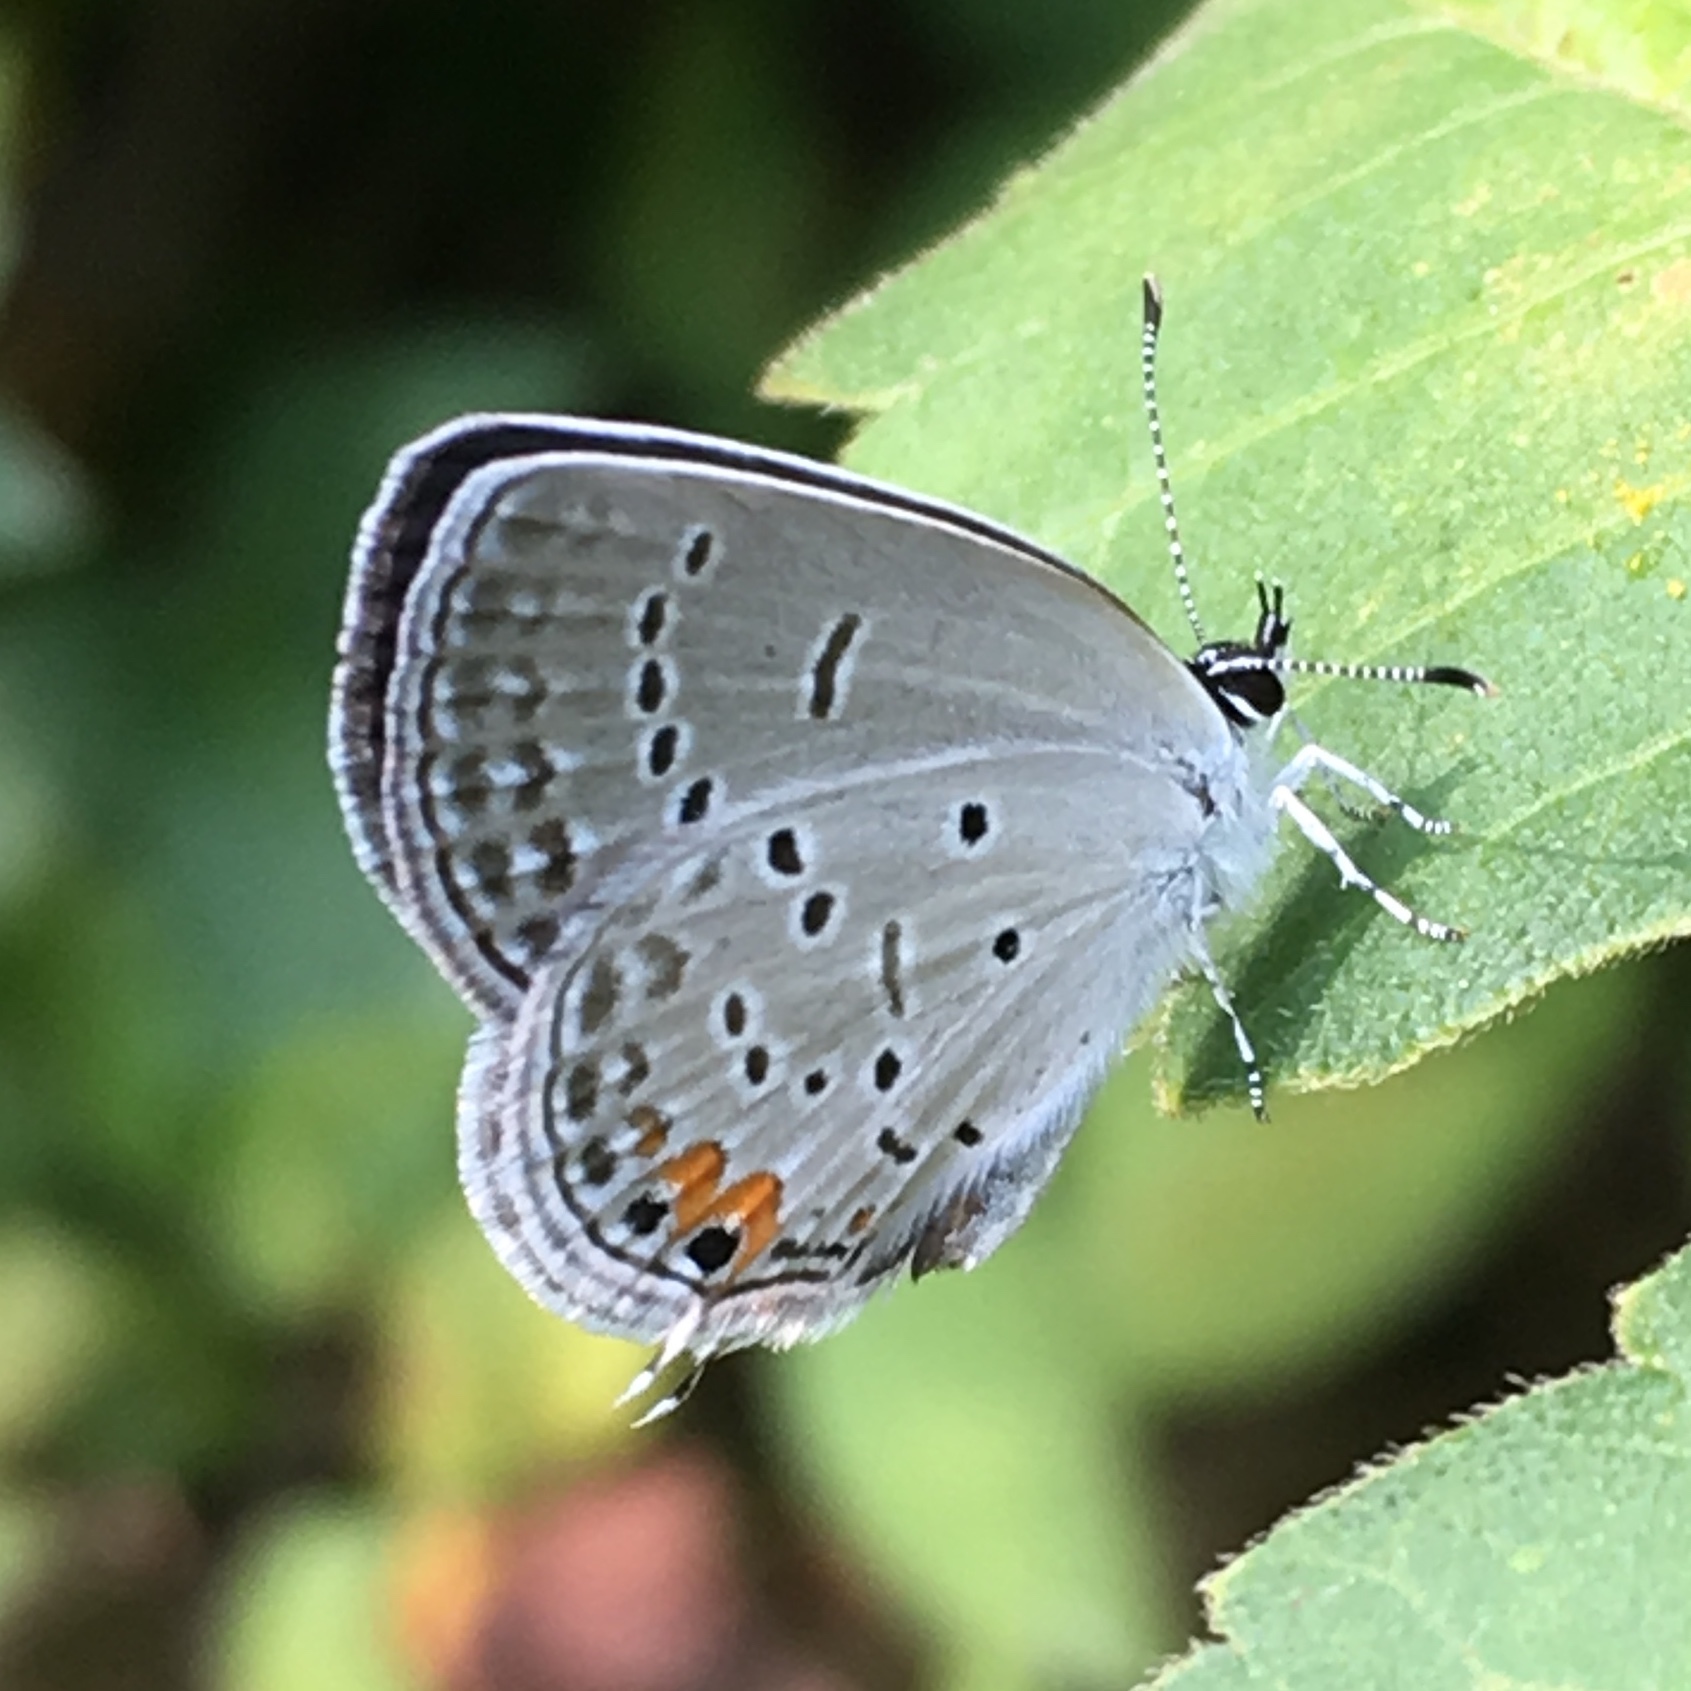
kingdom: Animalia
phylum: Arthropoda
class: Insecta
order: Lepidoptera
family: Lycaenidae
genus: Elkalyce
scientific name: Elkalyce comyntas
